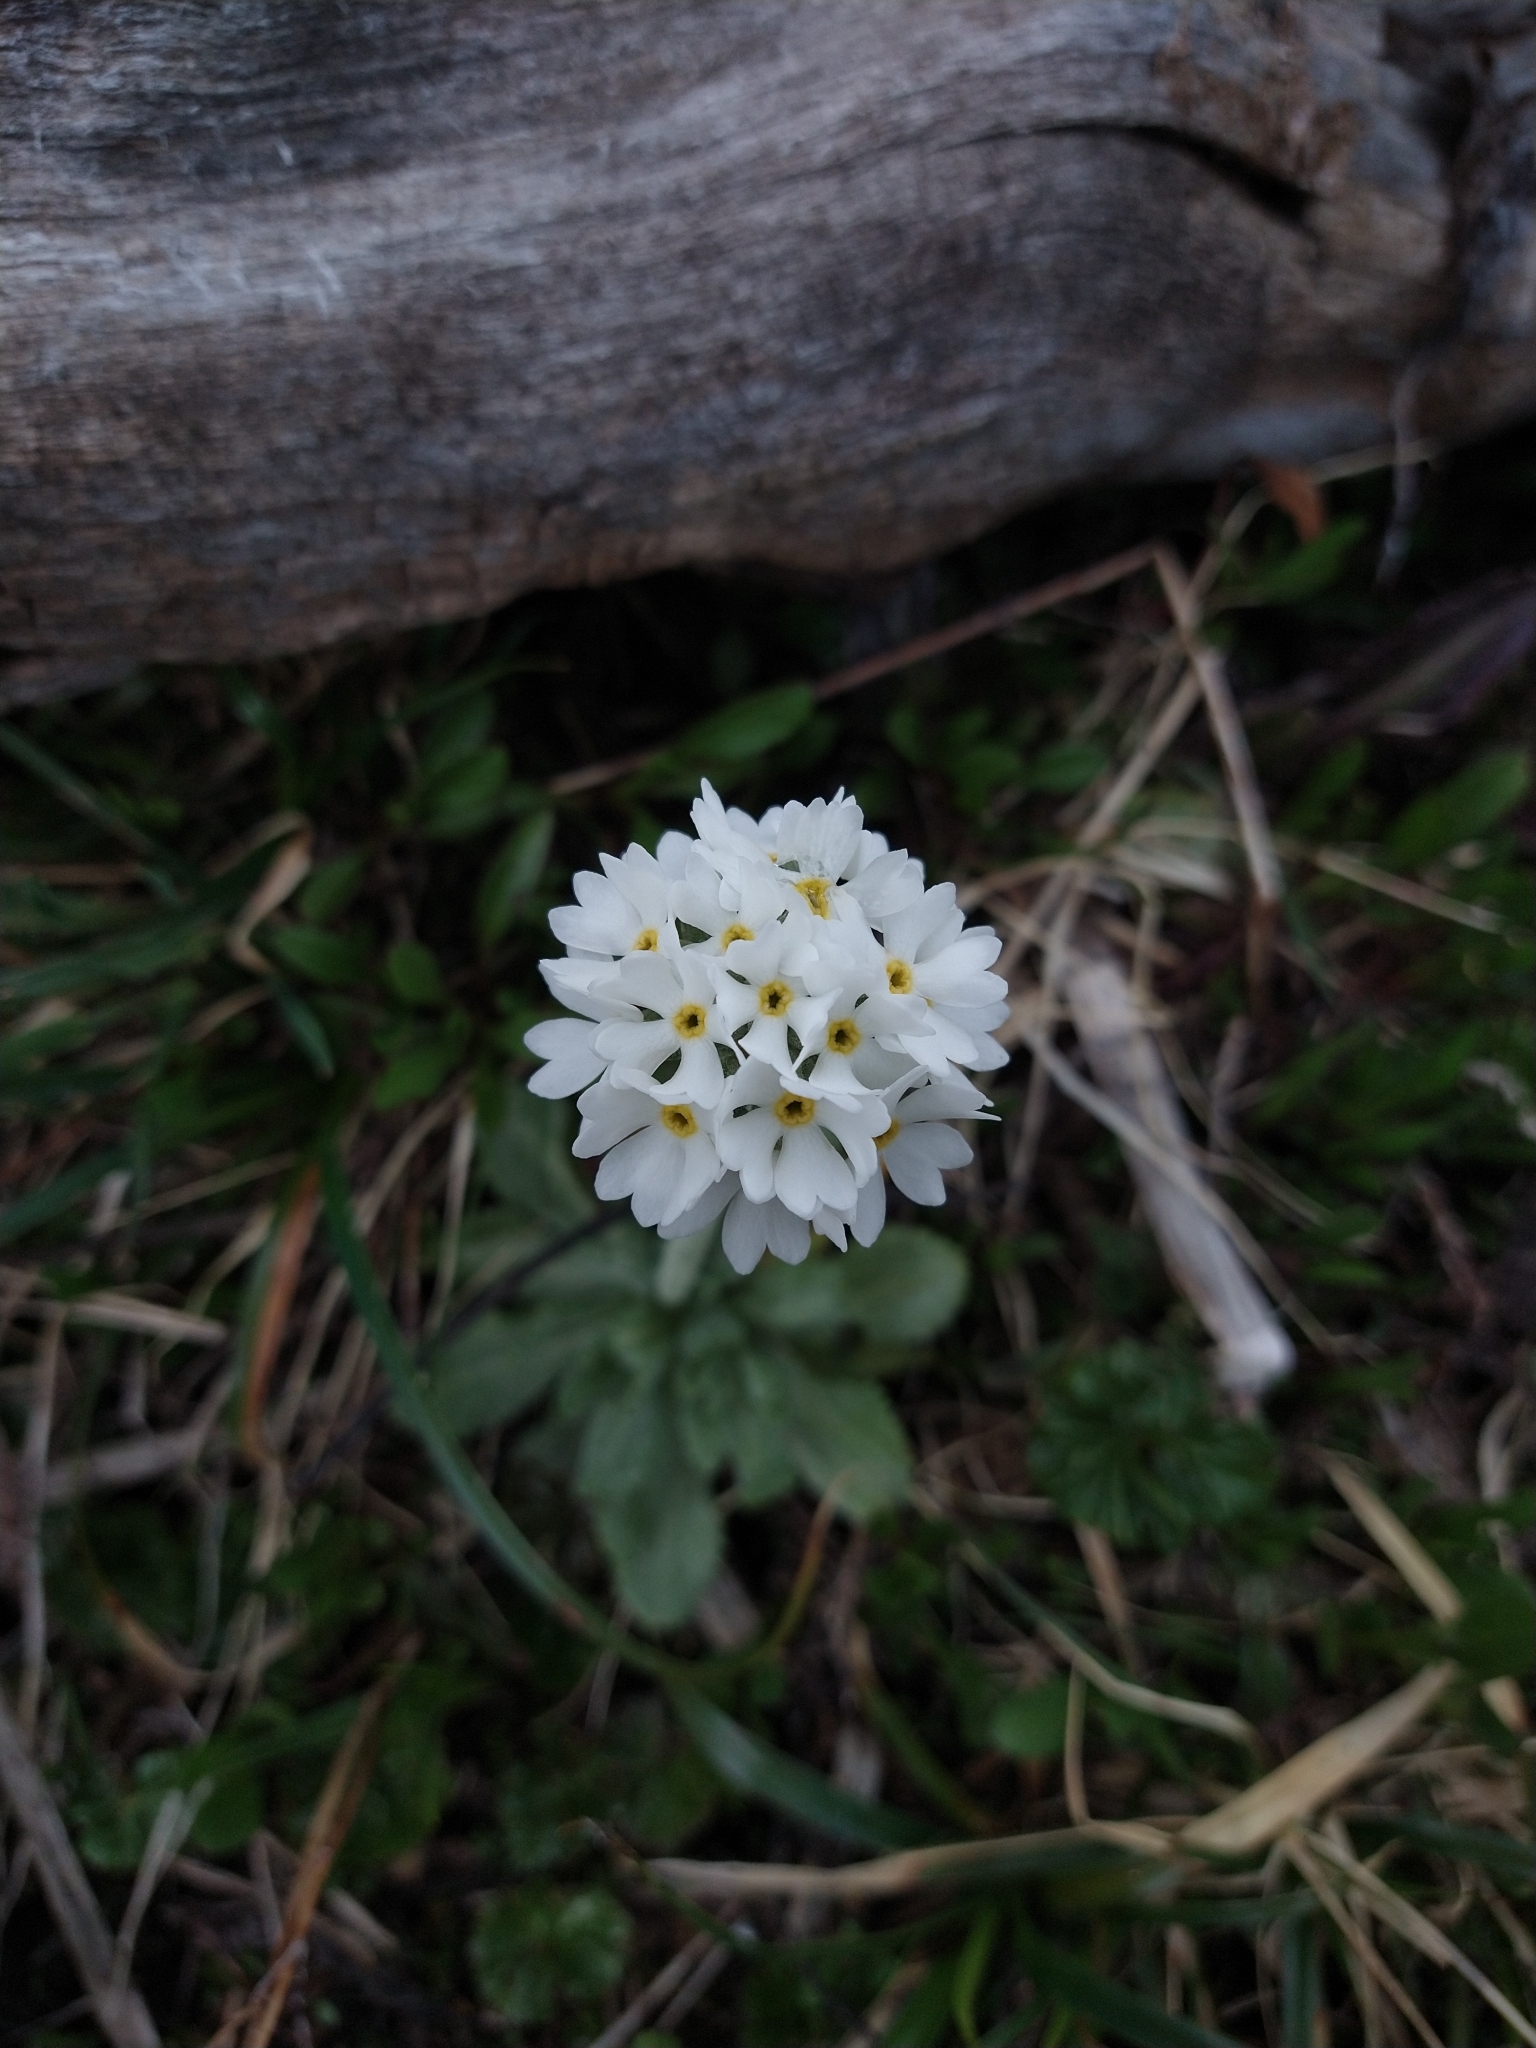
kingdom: Plantae
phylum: Tracheophyta
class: Magnoliopsida
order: Ericales
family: Primulaceae
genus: Primula
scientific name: Primula magellanica
